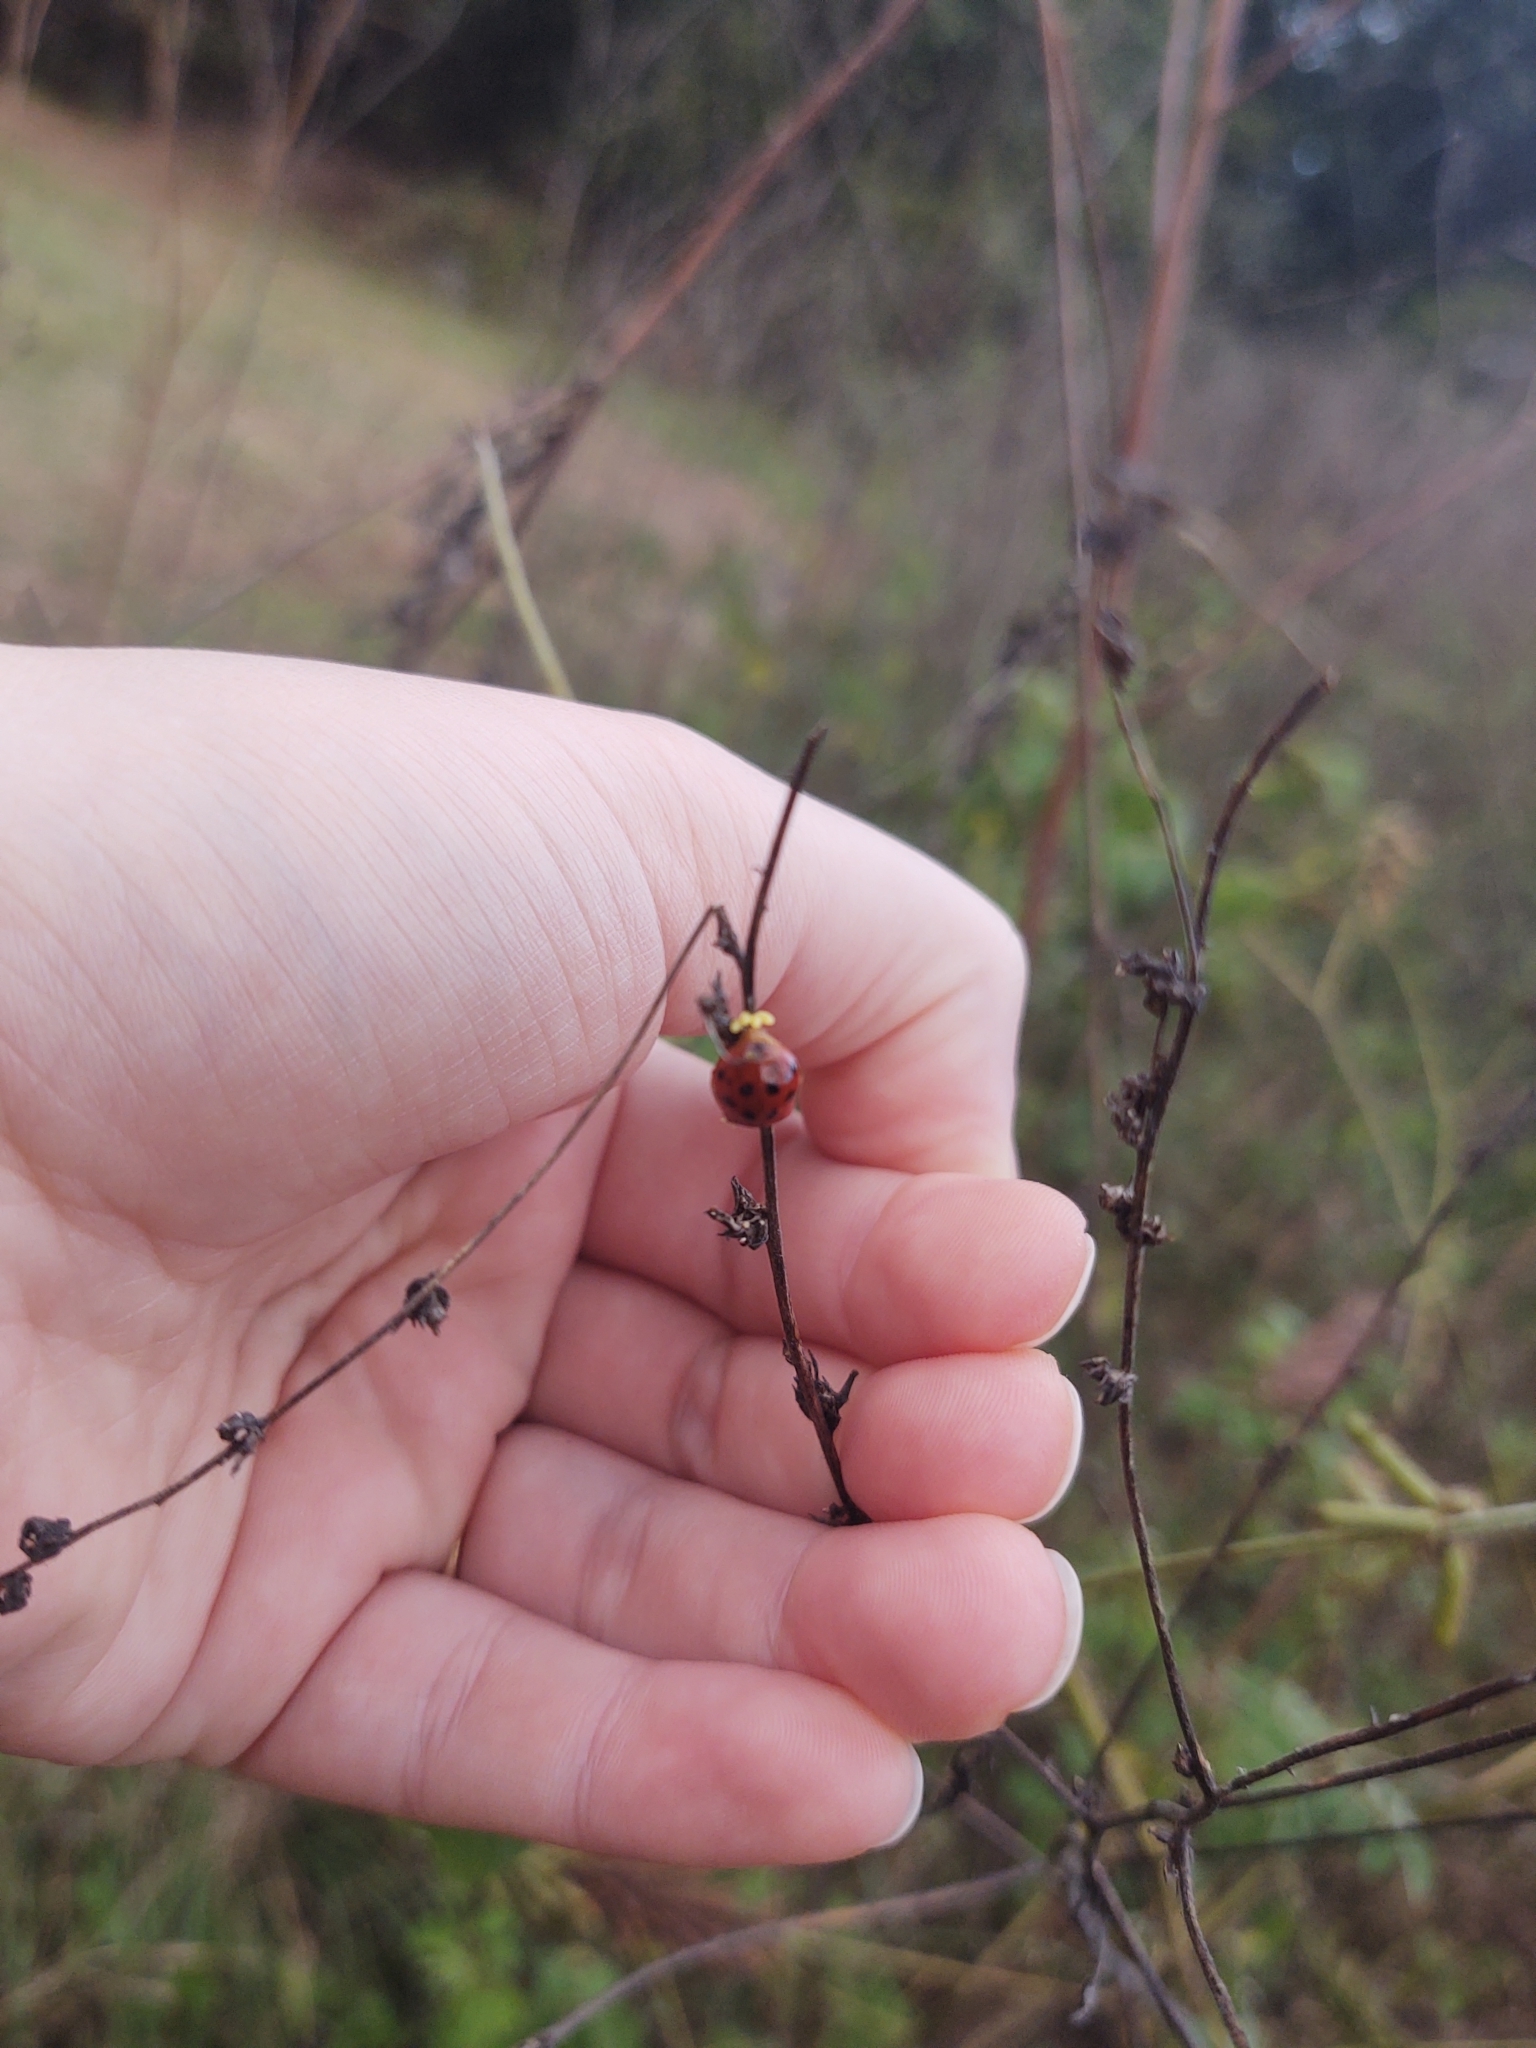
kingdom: Animalia
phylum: Arthropoda
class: Insecta
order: Coleoptera
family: Coccinellidae
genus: Harmonia
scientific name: Harmonia axyridis
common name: Harlequin ladybird
